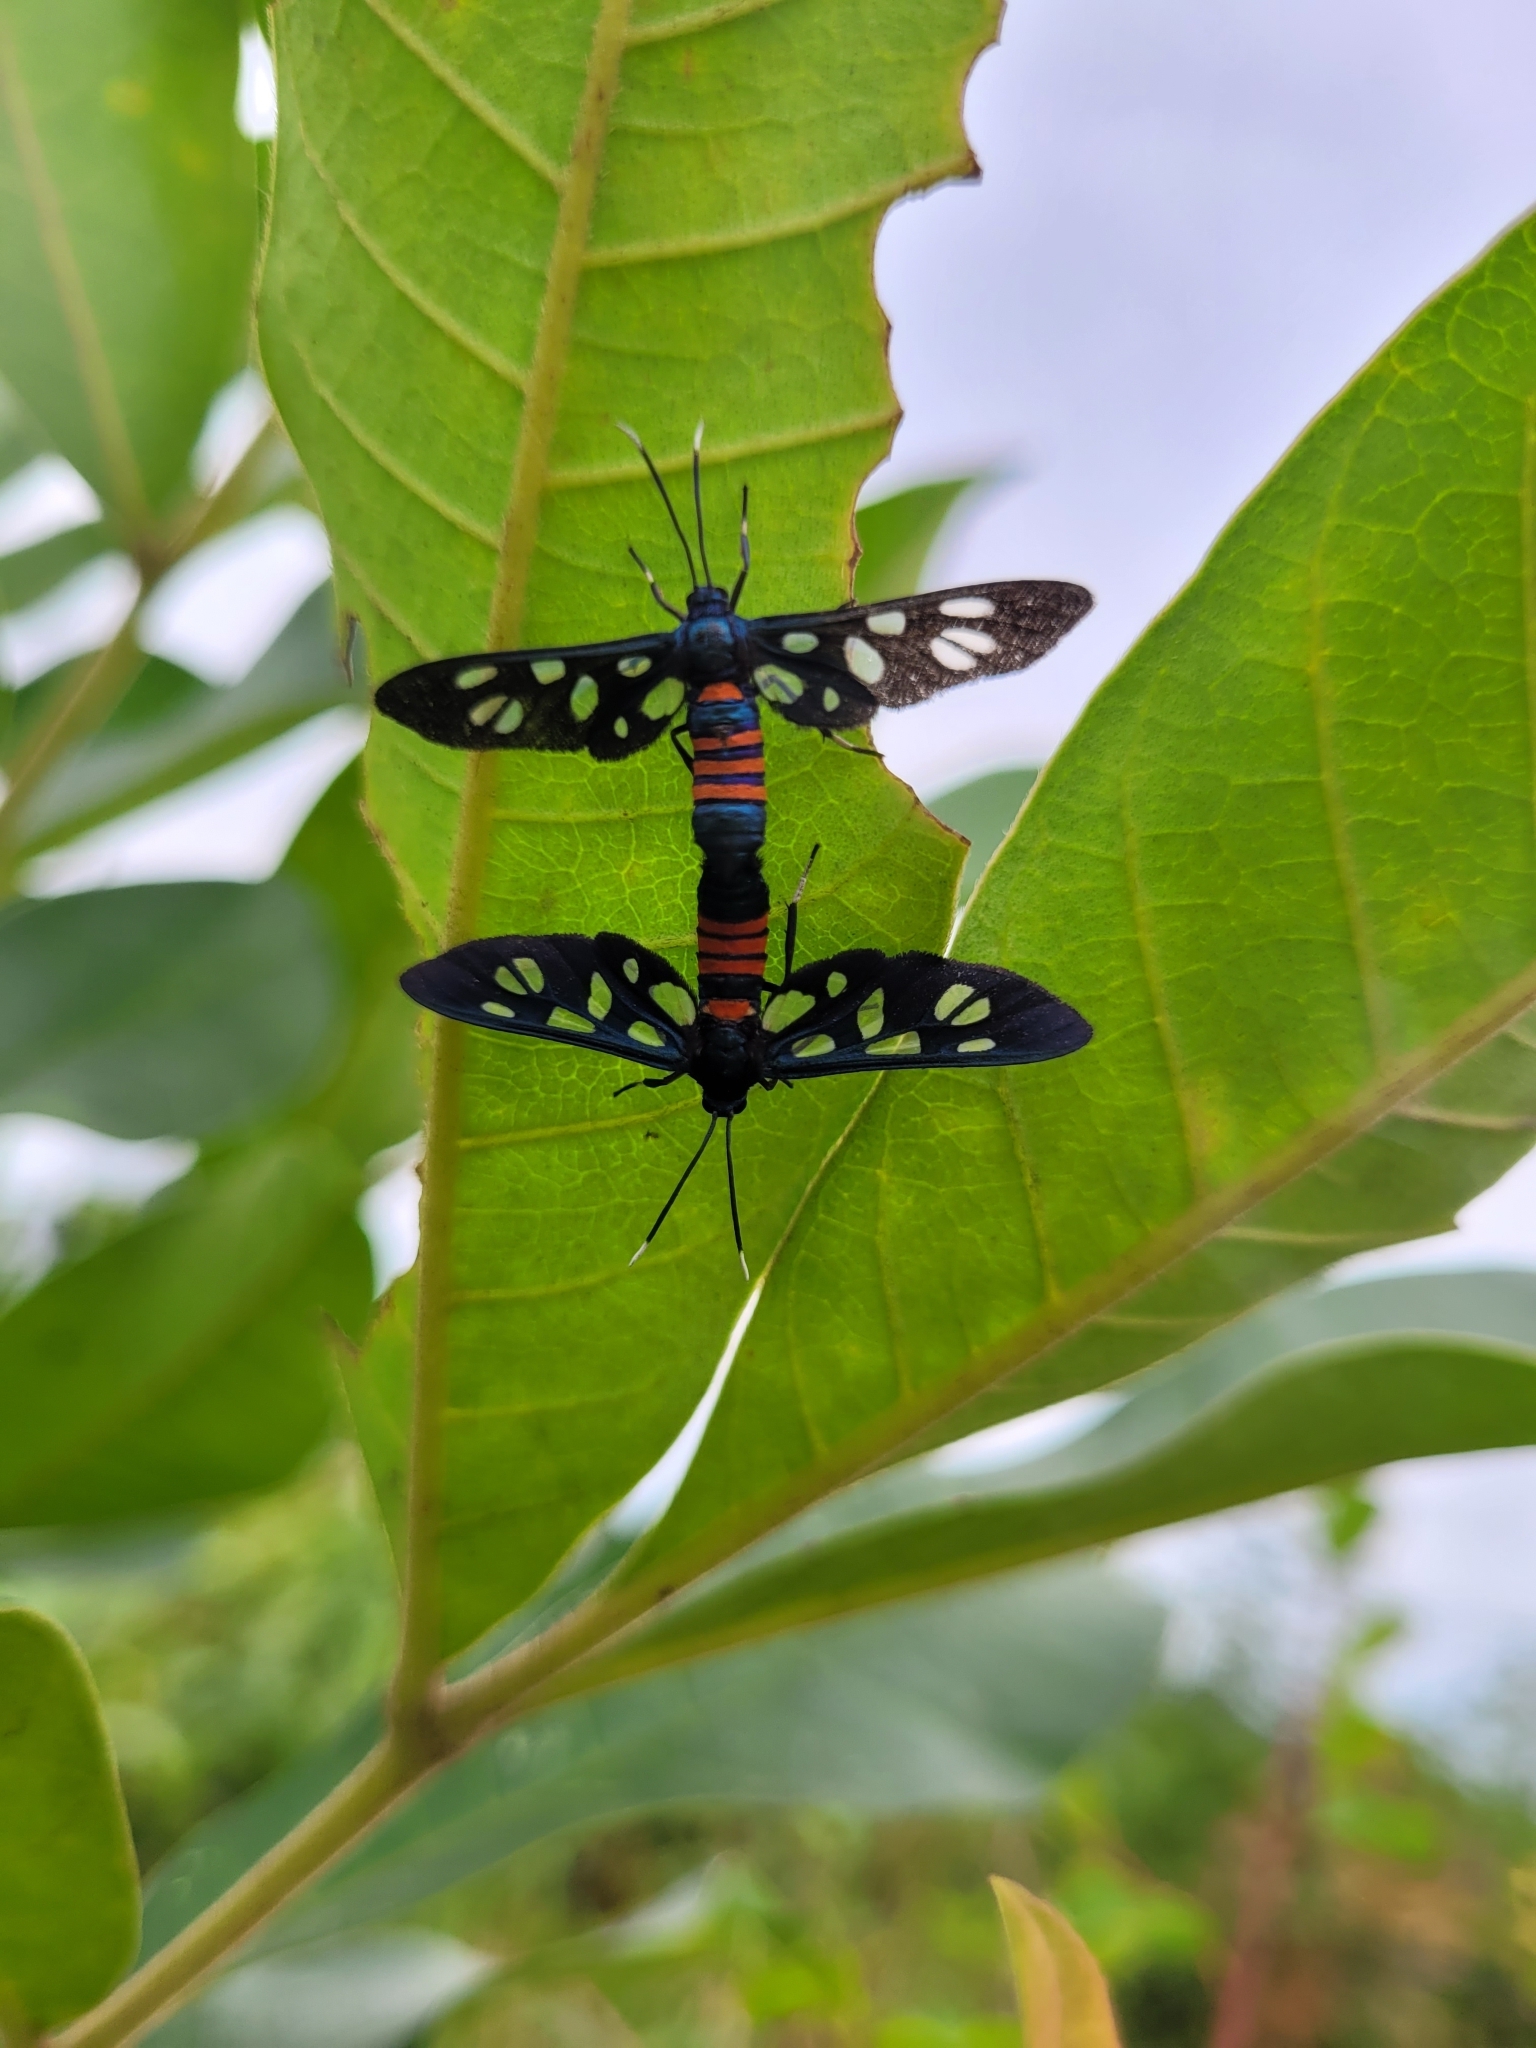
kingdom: Animalia
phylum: Arthropoda
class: Insecta
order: Lepidoptera
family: Erebidae
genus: Amata
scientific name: Amata alicia
